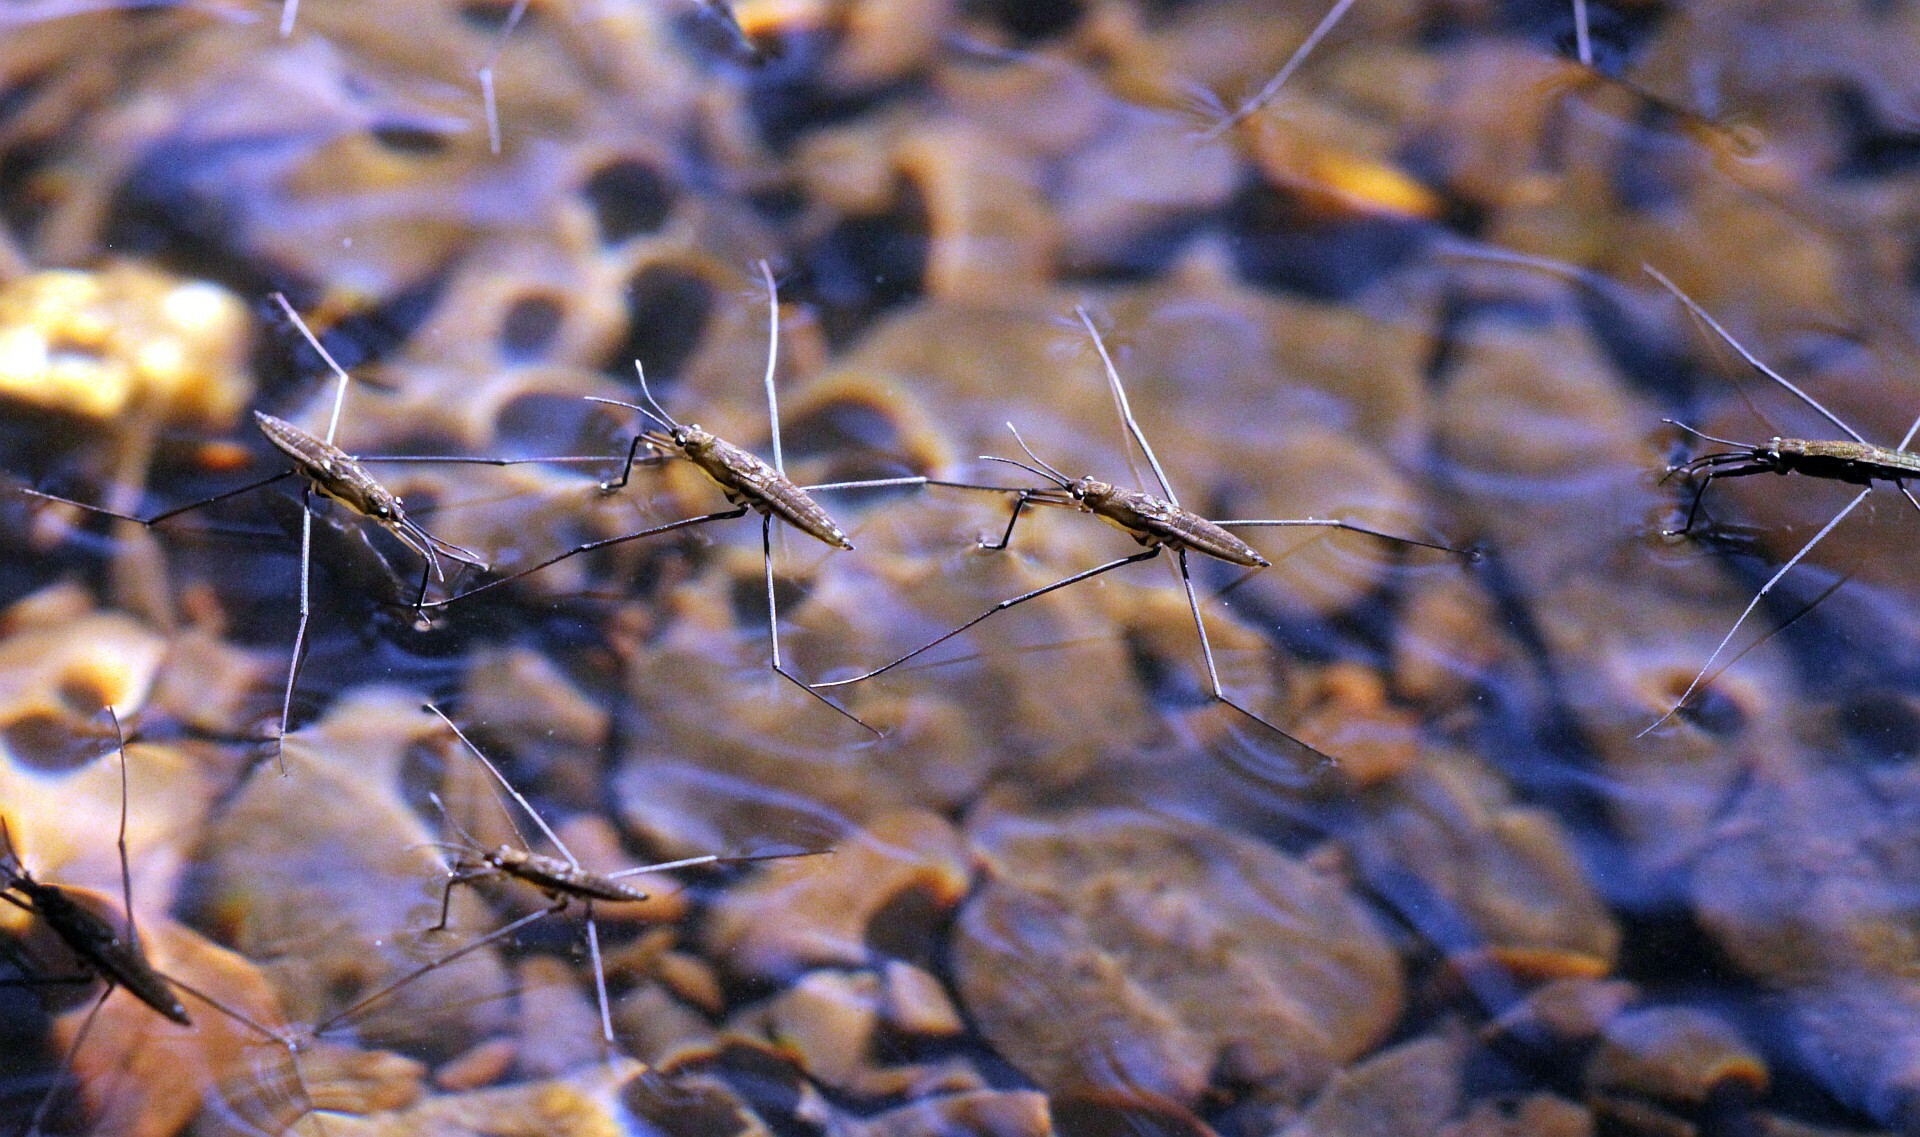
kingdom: Animalia
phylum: Arthropoda
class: Insecta
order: Hemiptera
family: Gerridae
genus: Aquarius
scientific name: Aquarius najas
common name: River skater
